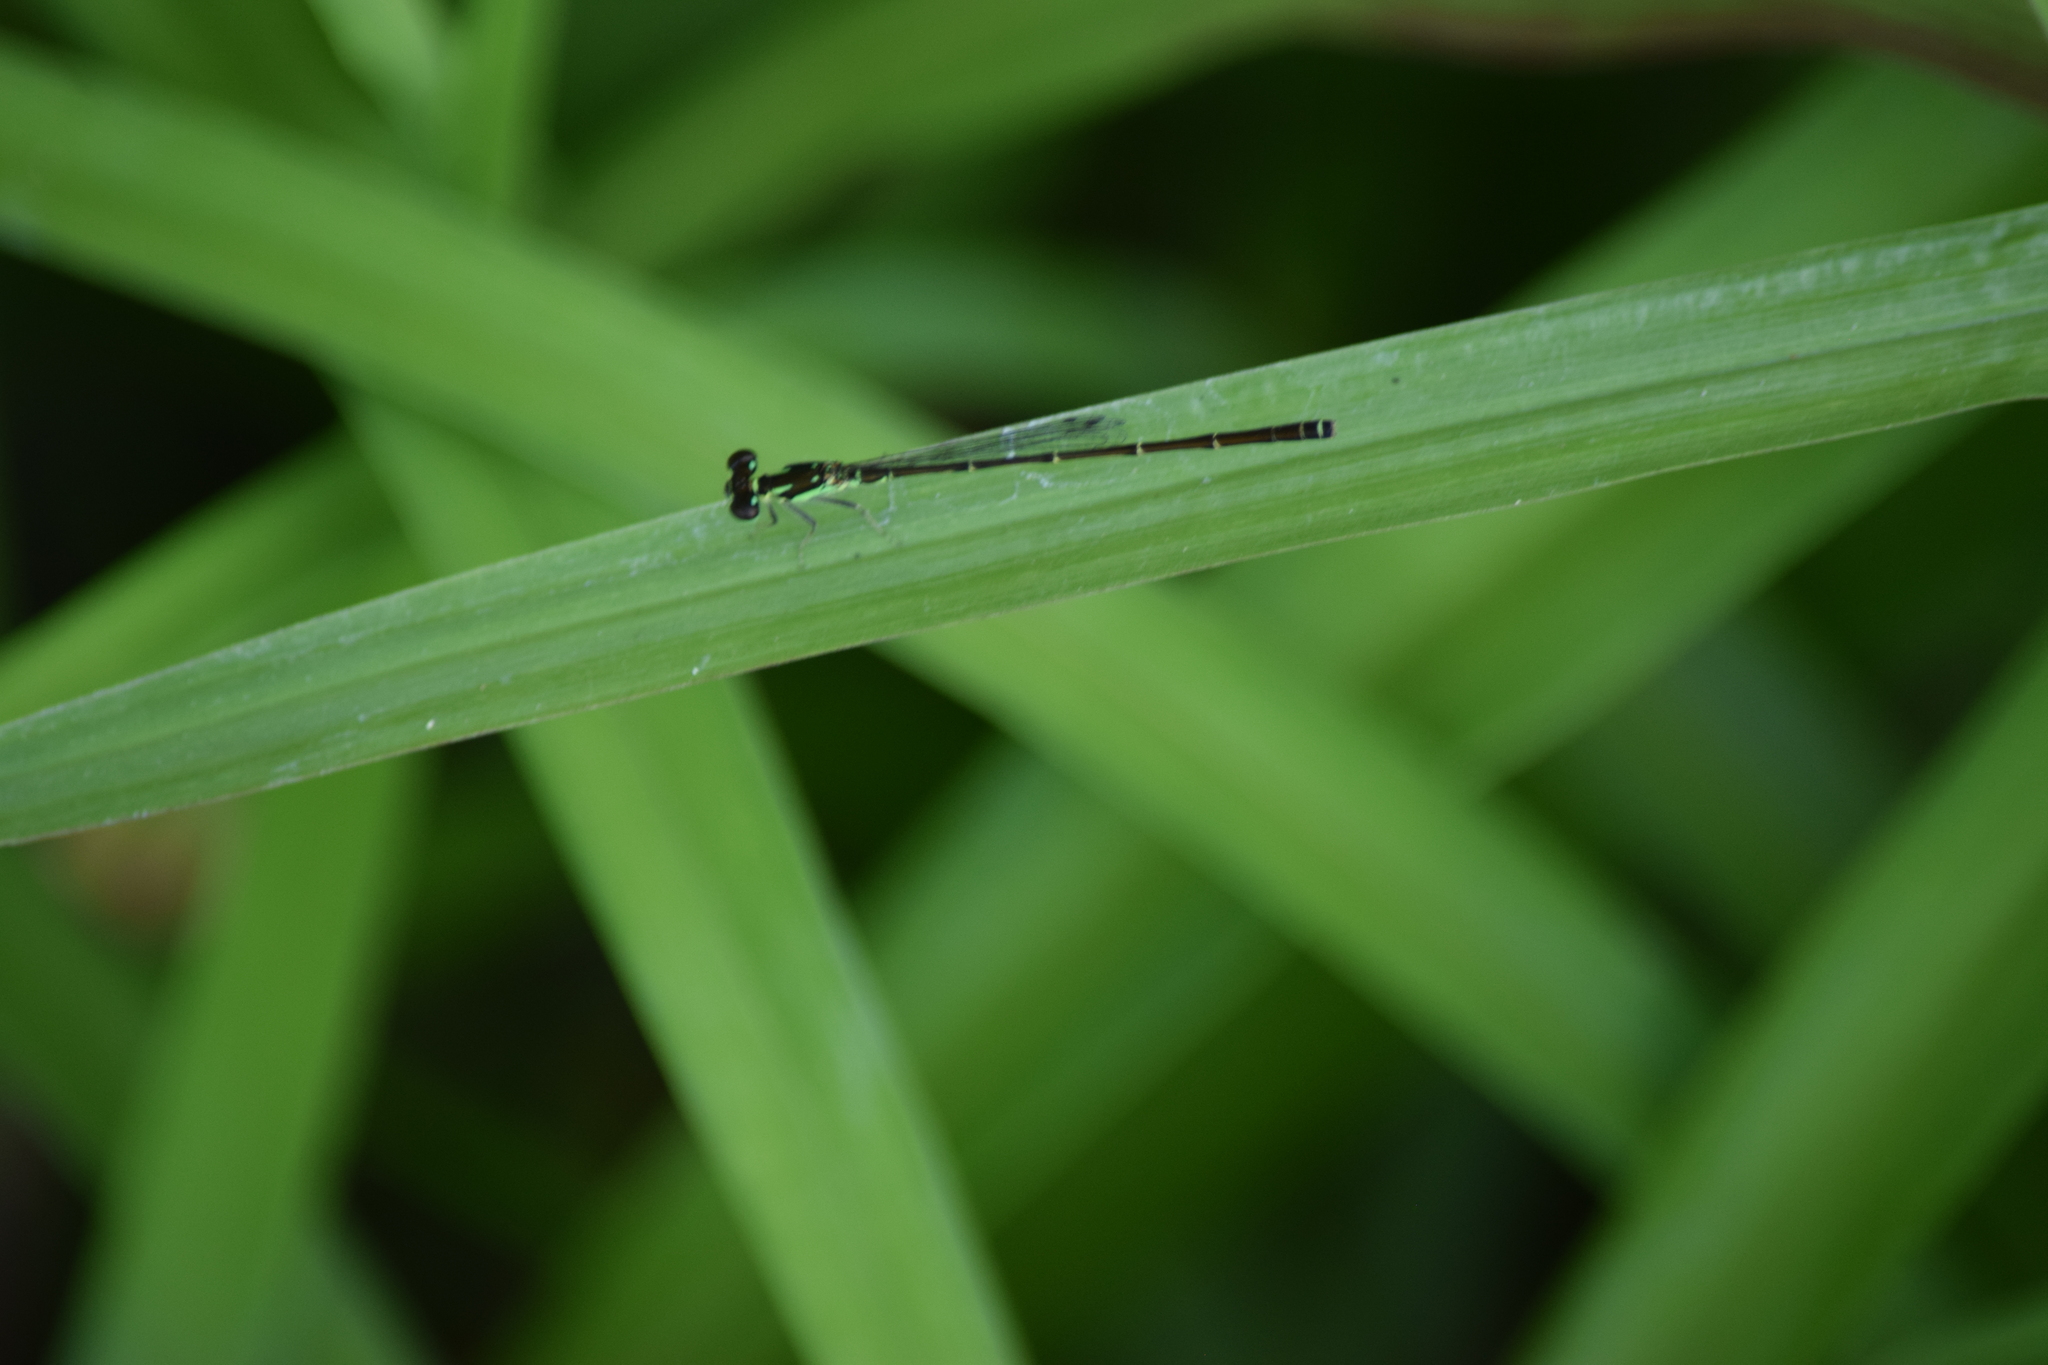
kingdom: Animalia
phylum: Arthropoda
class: Insecta
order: Odonata
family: Coenagrionidae
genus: Ischnura
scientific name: Ischnura posita
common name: Fragile forktail
